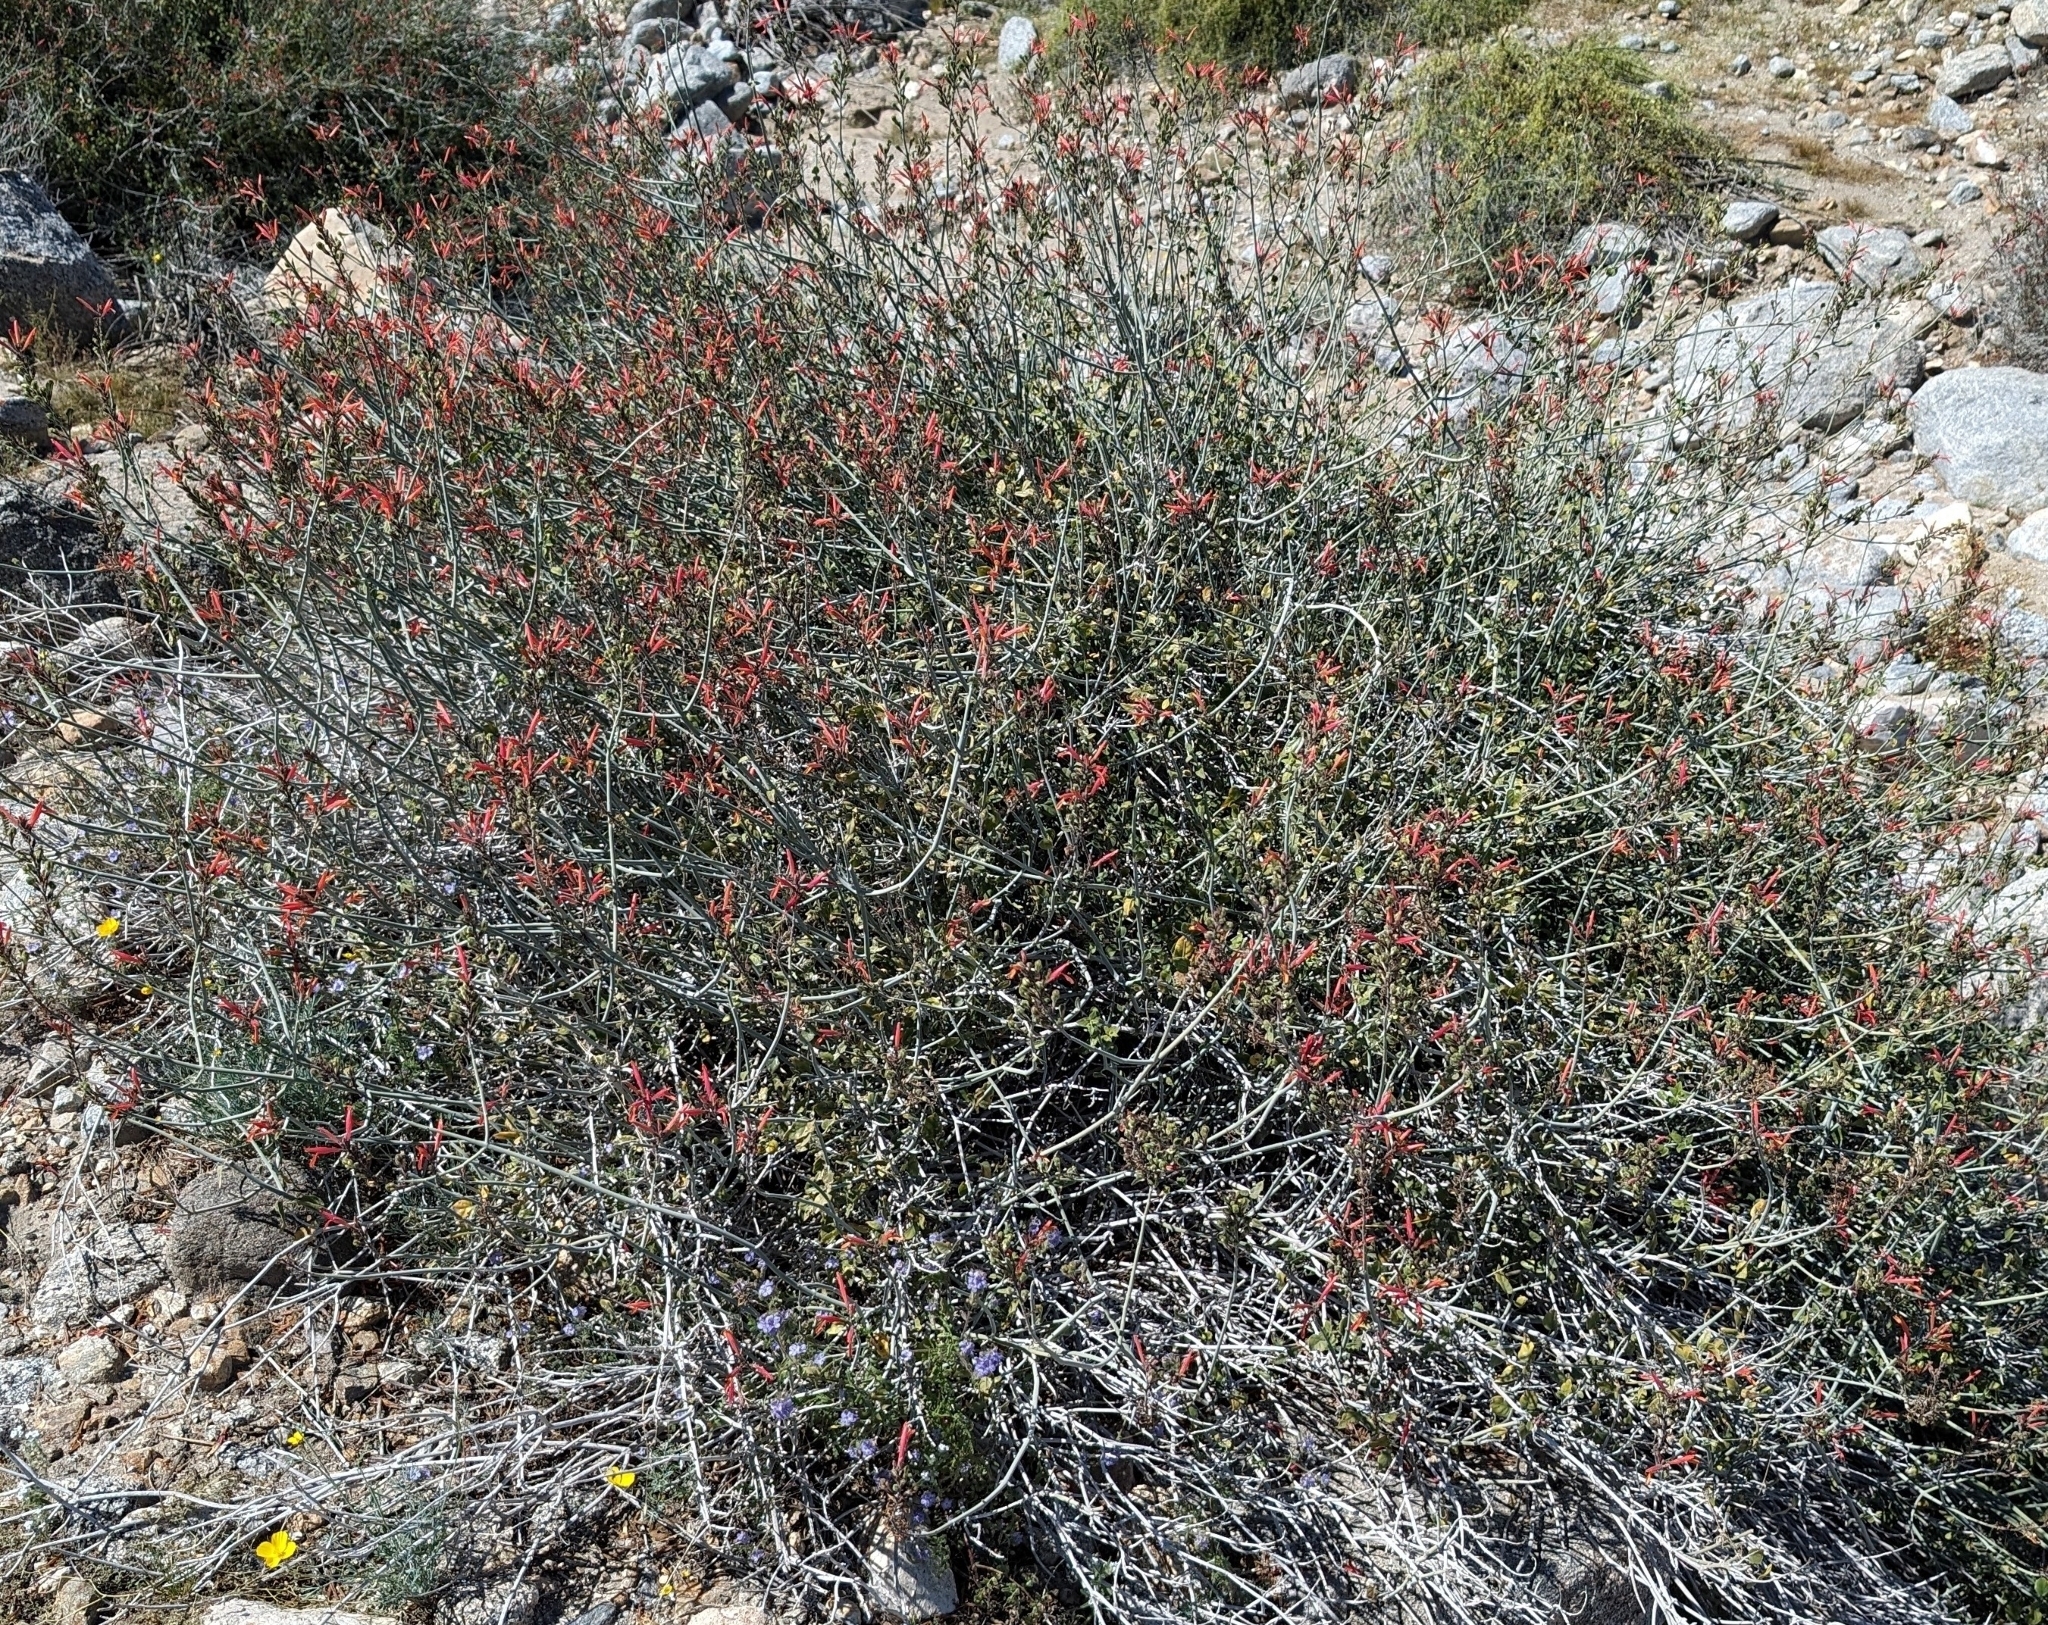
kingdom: Plantae
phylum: Tracheophyta
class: Magnoliopsida
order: Lamiales
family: Acanthaceae
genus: Justicia
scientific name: Justicia californica
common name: Chuparosa-honeysuckle
